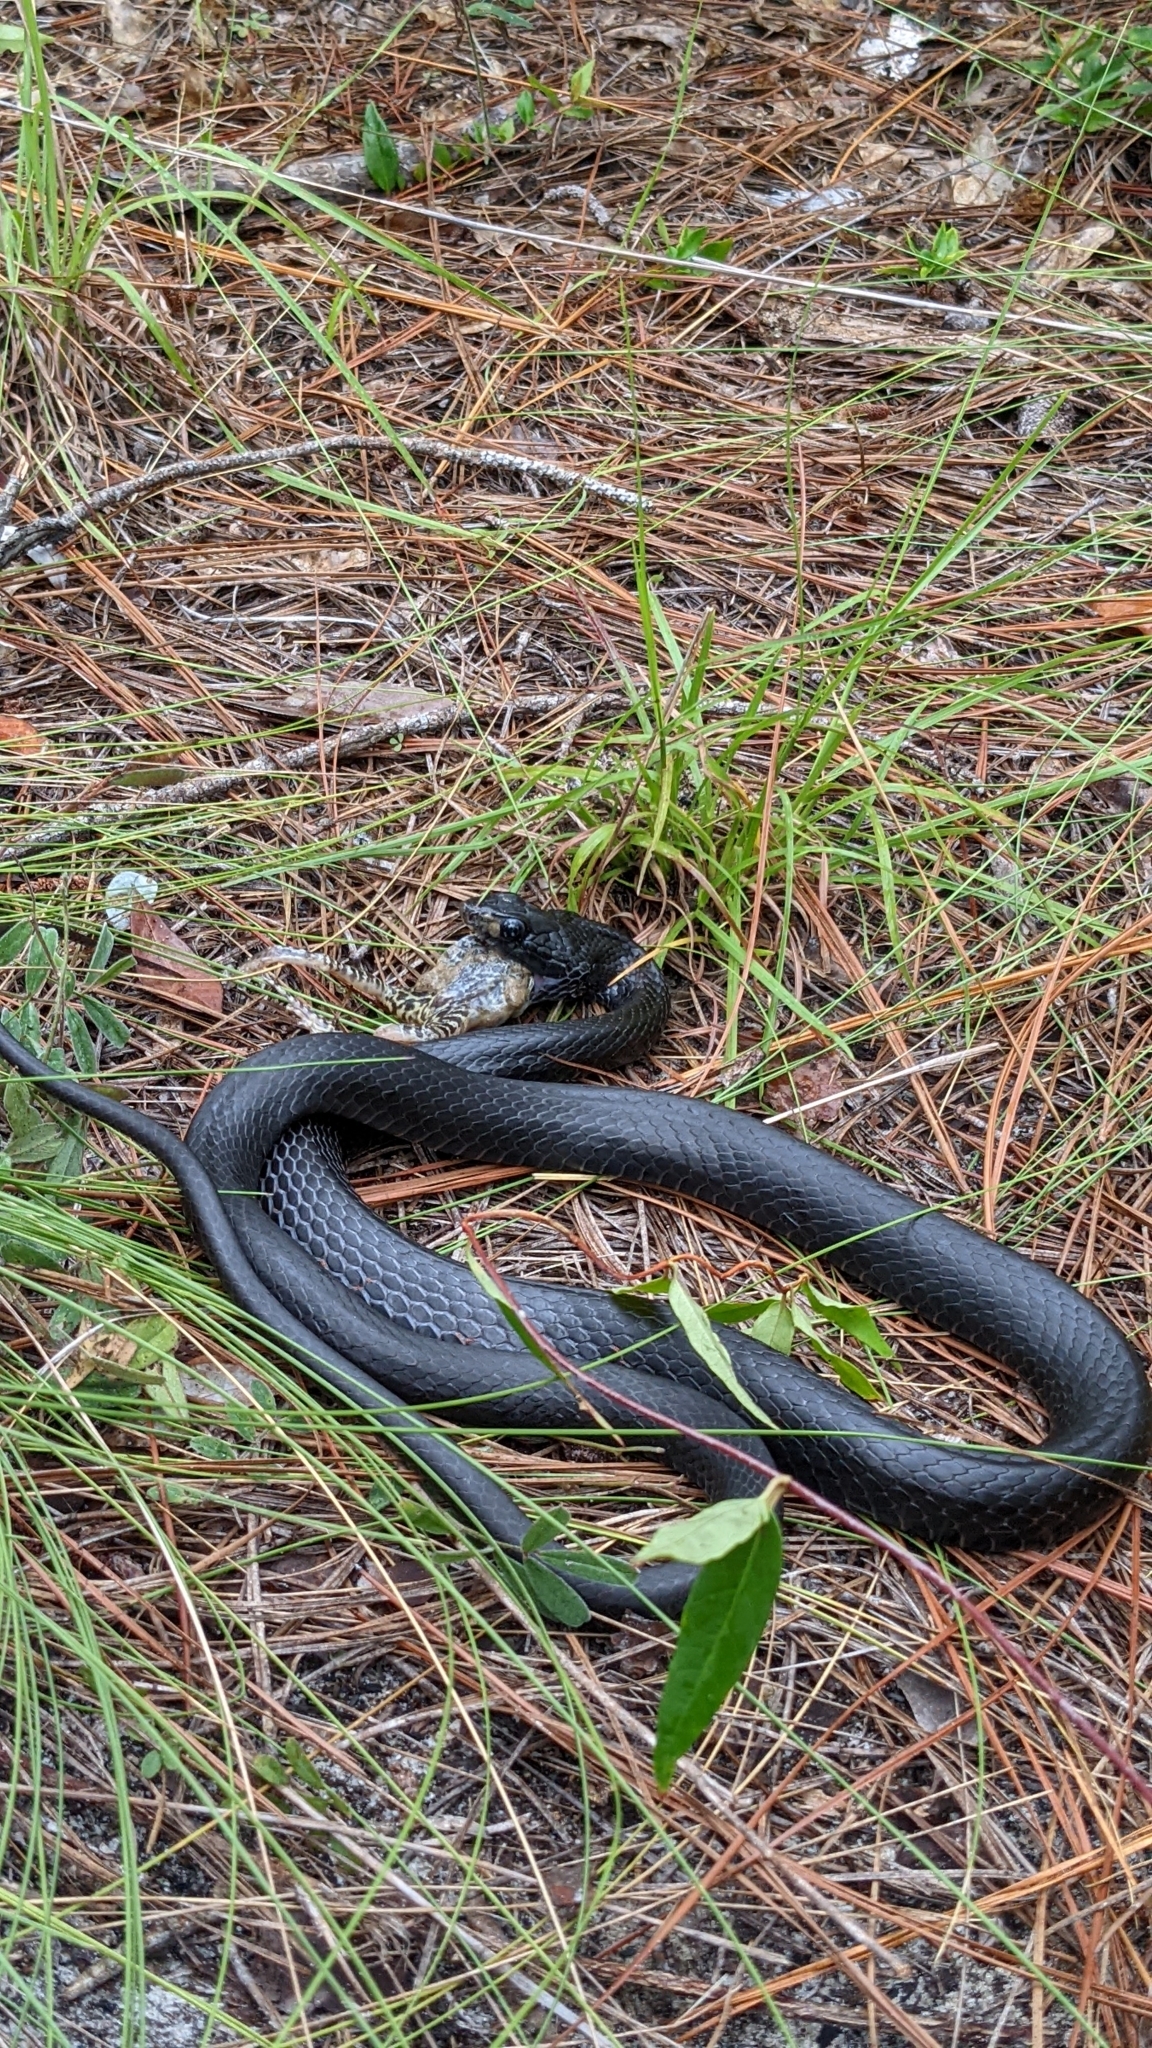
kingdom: Animalia
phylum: Chordata
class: Squamata
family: Colubridae
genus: Coluber
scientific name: Coluber constrictor
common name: Eastern racer
